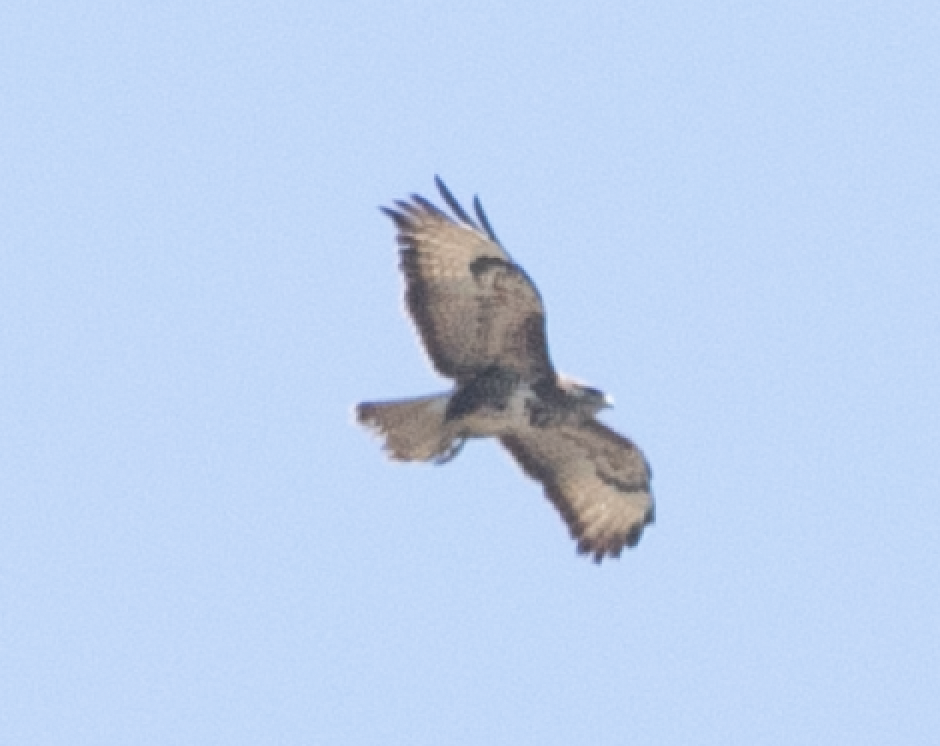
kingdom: Animalia
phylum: Chordata
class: Aves
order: Accipitriformes
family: Accipitridae
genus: Buteo
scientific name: Buteo buteo
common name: Common buzzard
